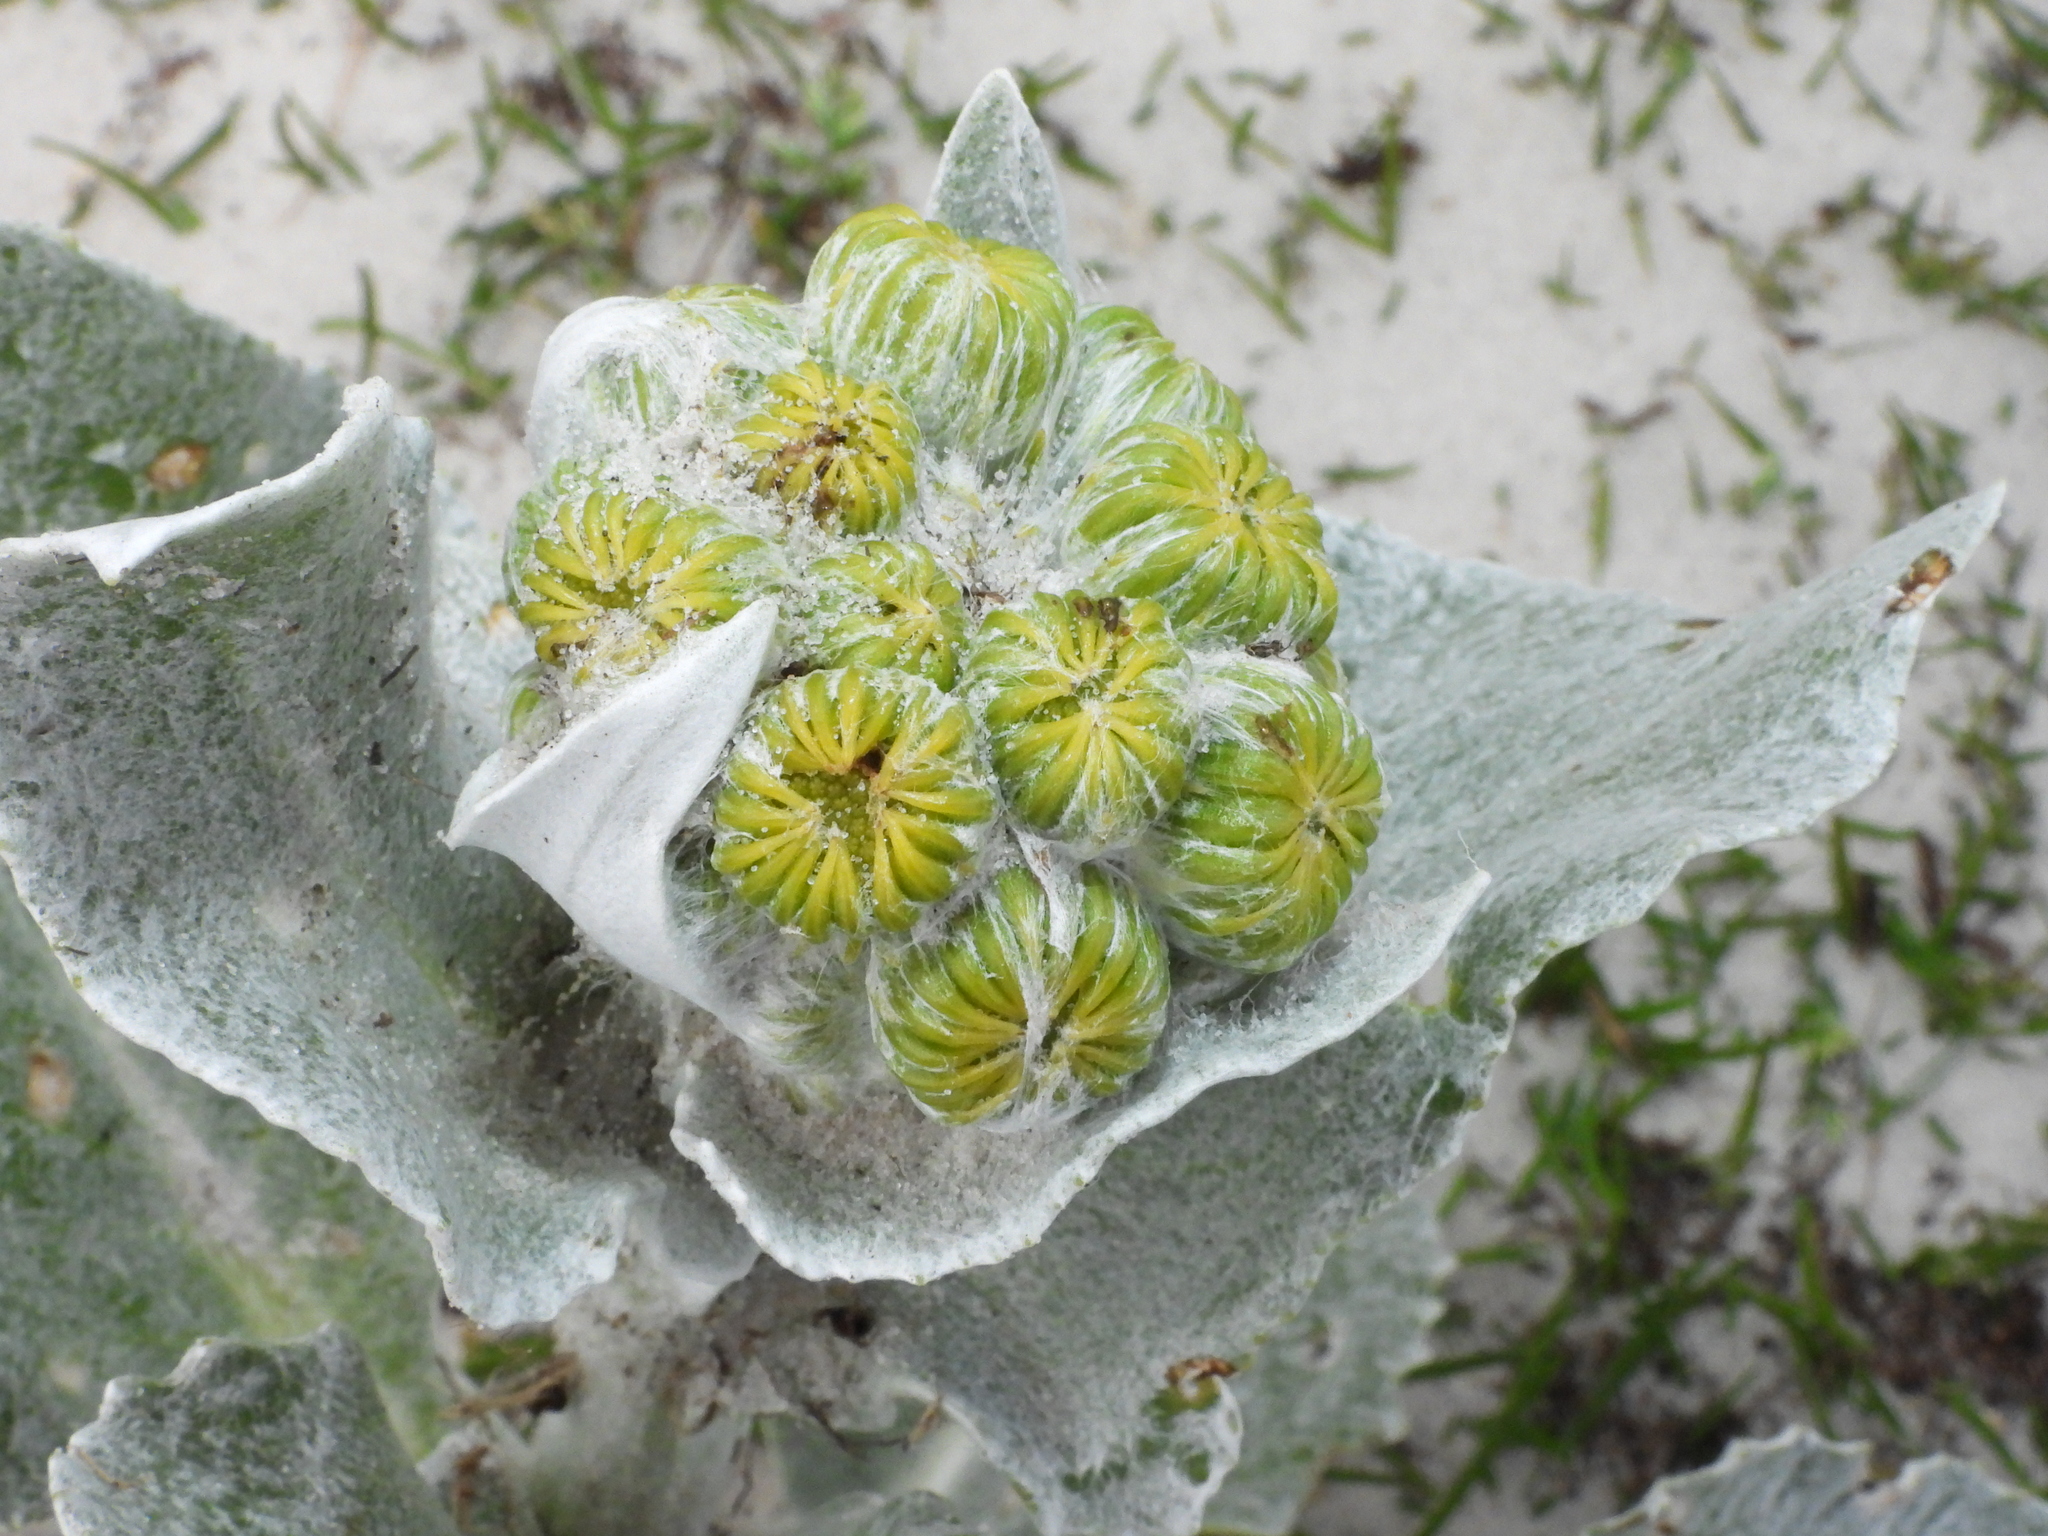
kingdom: Plantae
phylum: Tracheophyta
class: Magnoliopsida
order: Asterales
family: Asteraceae
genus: Senecio
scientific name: Senecio candidans
